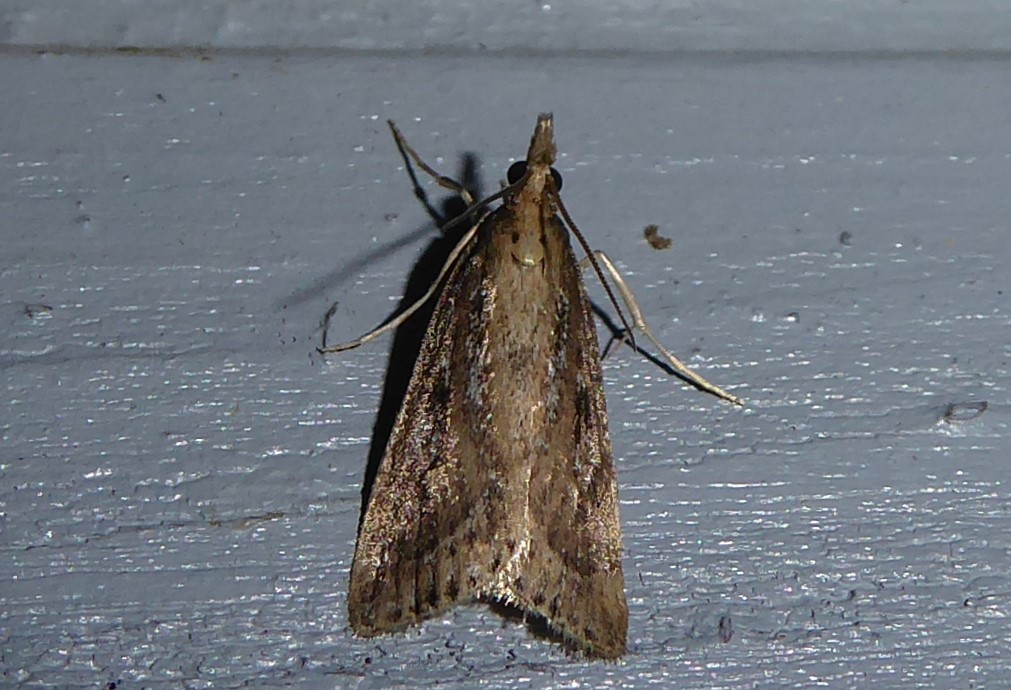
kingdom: Animalia
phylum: Arthropoda
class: Insecta
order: Lepidoptera
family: Crambidae
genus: Eudonia
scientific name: Eudonia octophora
